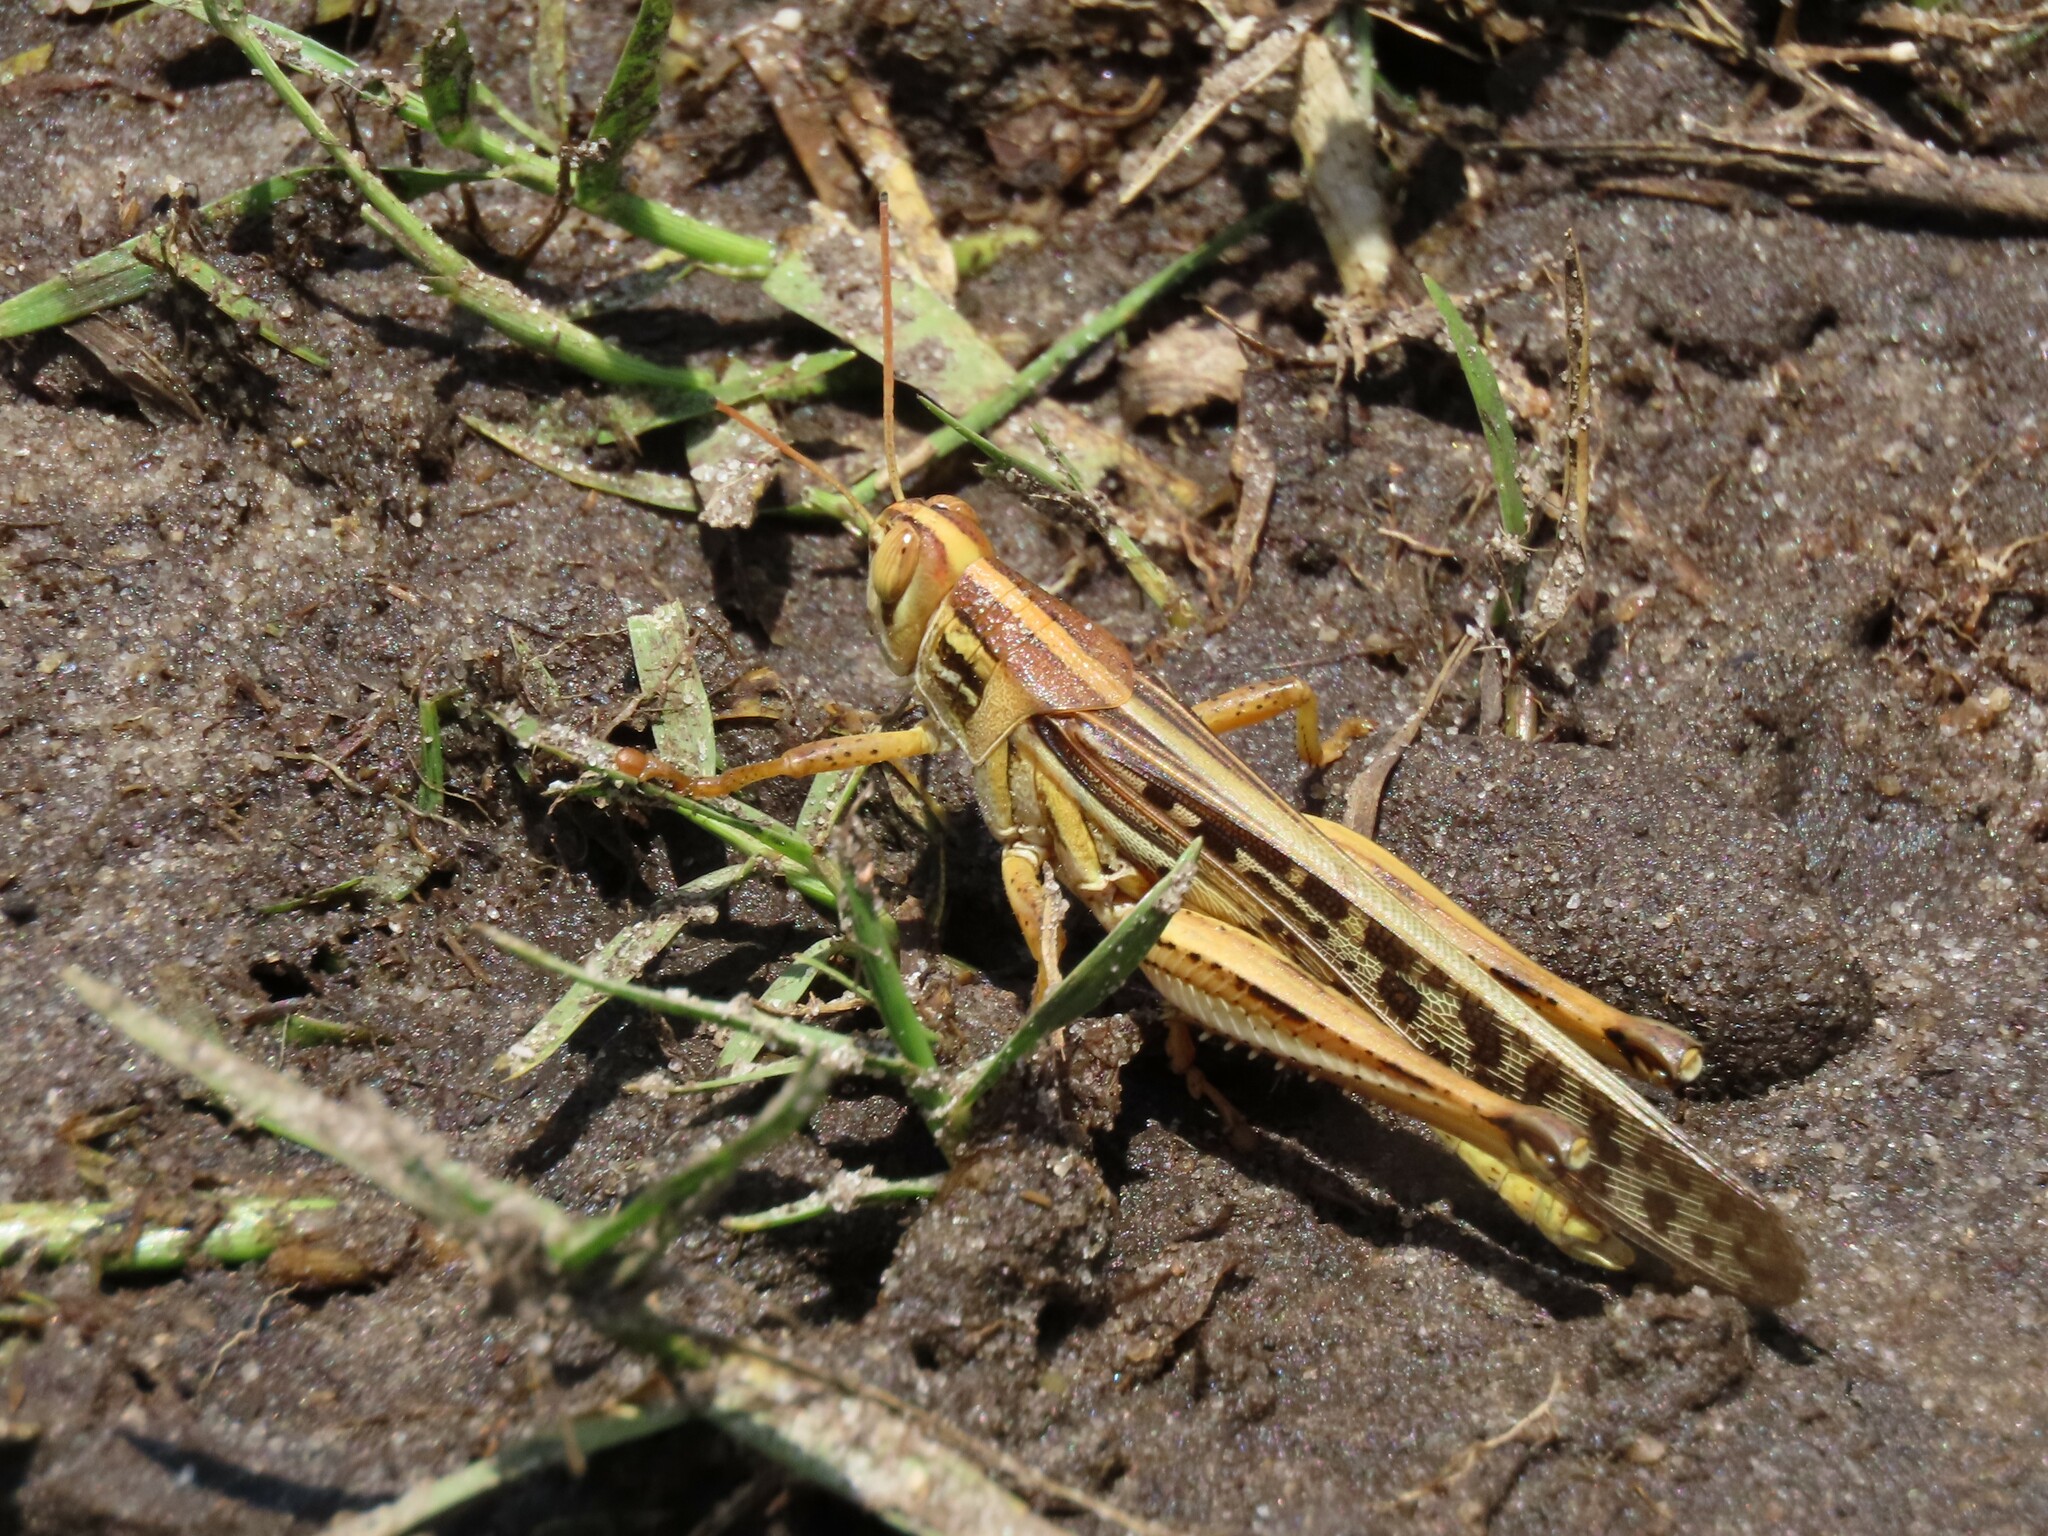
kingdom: Animalia
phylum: Arthropoda
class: Insecta
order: Orthoptera
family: Acrididae
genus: Schistocerca
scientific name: Schistocerca americana
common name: American bird locust
